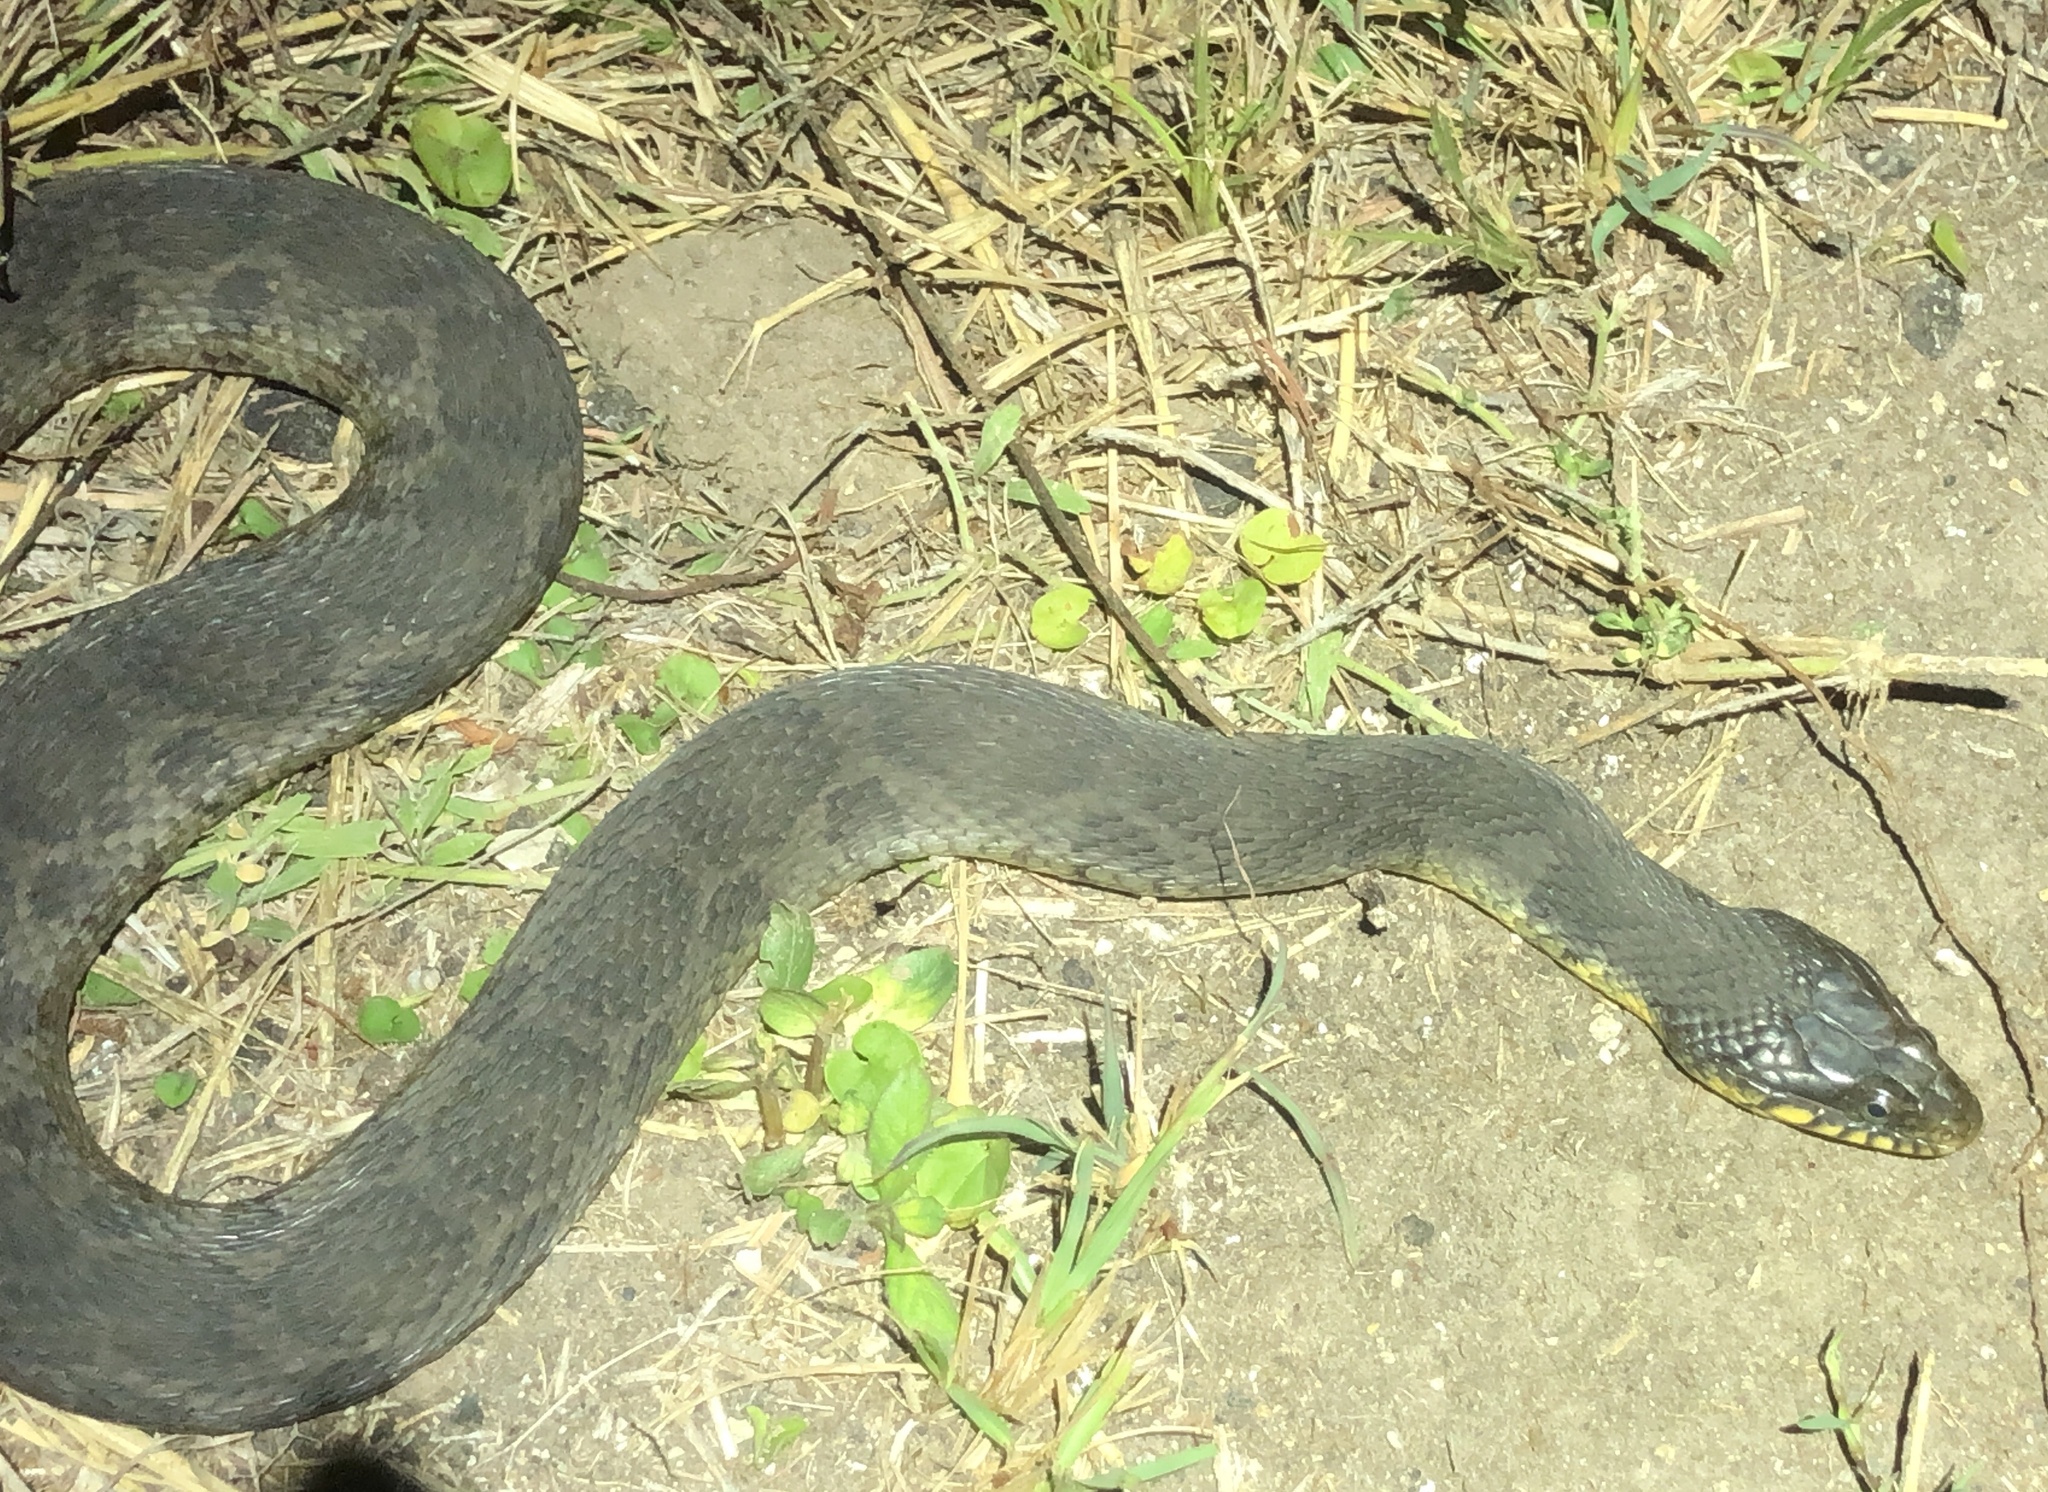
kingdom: Animalia
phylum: Chordata
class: Squamata
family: Colubridae
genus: Nerodia
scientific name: Nerodia erythrogaster
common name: Plainbelly water snake
